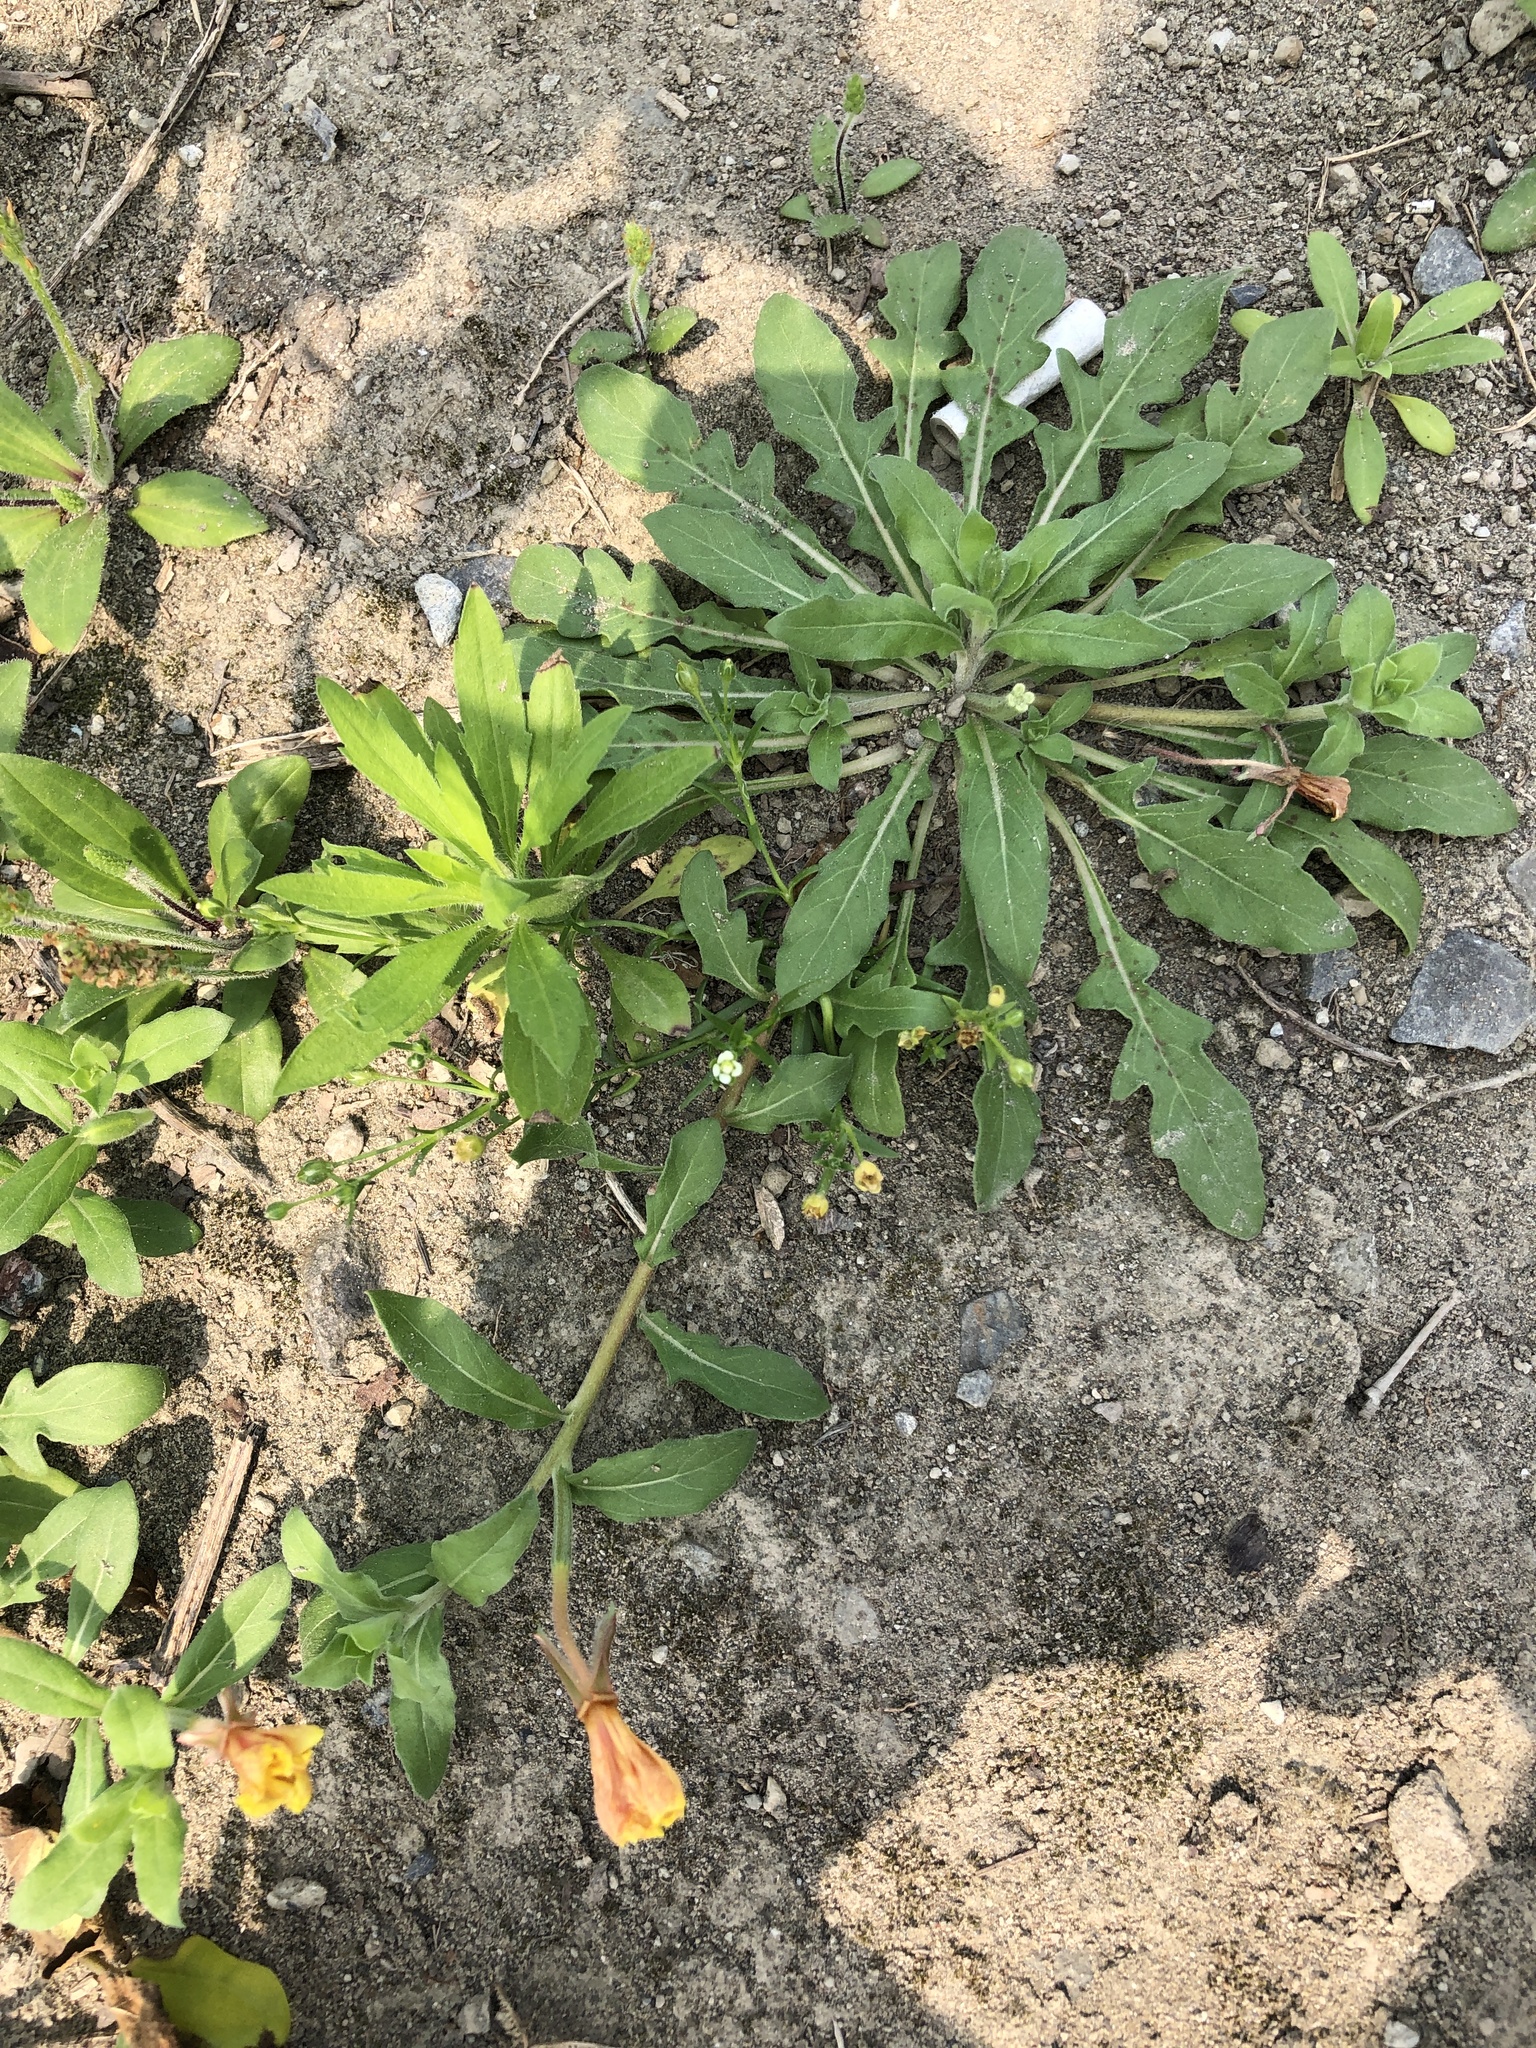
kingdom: Plantae
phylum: Tracheophyta
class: Magnoliopsida
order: Myrtales
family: Onagraceae
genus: Oenothera
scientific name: Oenothera laciniata
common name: Cut-leaved evening-primrose
